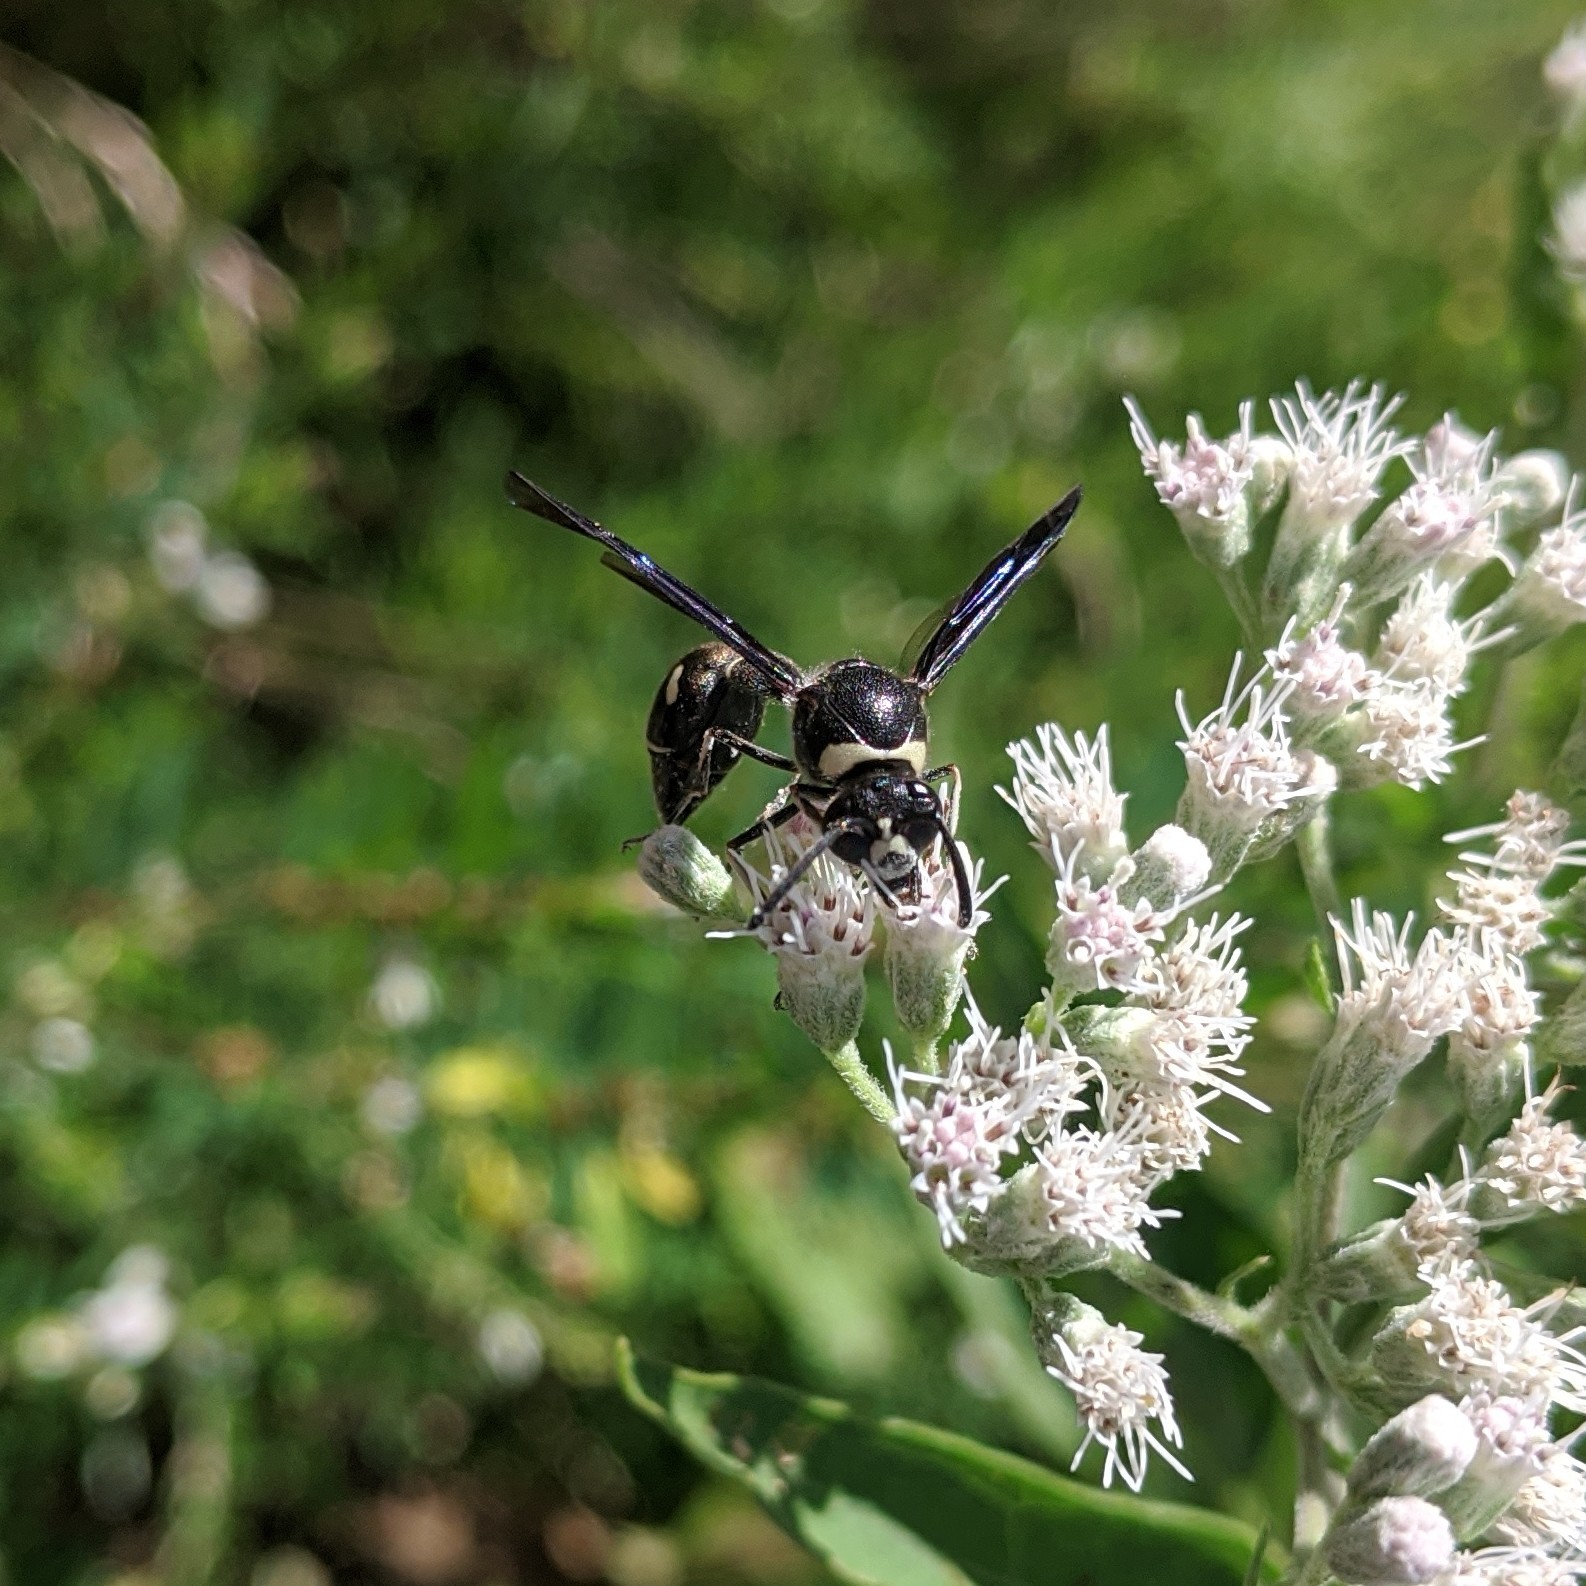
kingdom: Animalia
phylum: Arthropoda
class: Insecta
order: Hymenoptera
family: Vespidae
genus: Eumenes
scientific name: Eumenes fraternus
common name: Fraternal potter wasp
